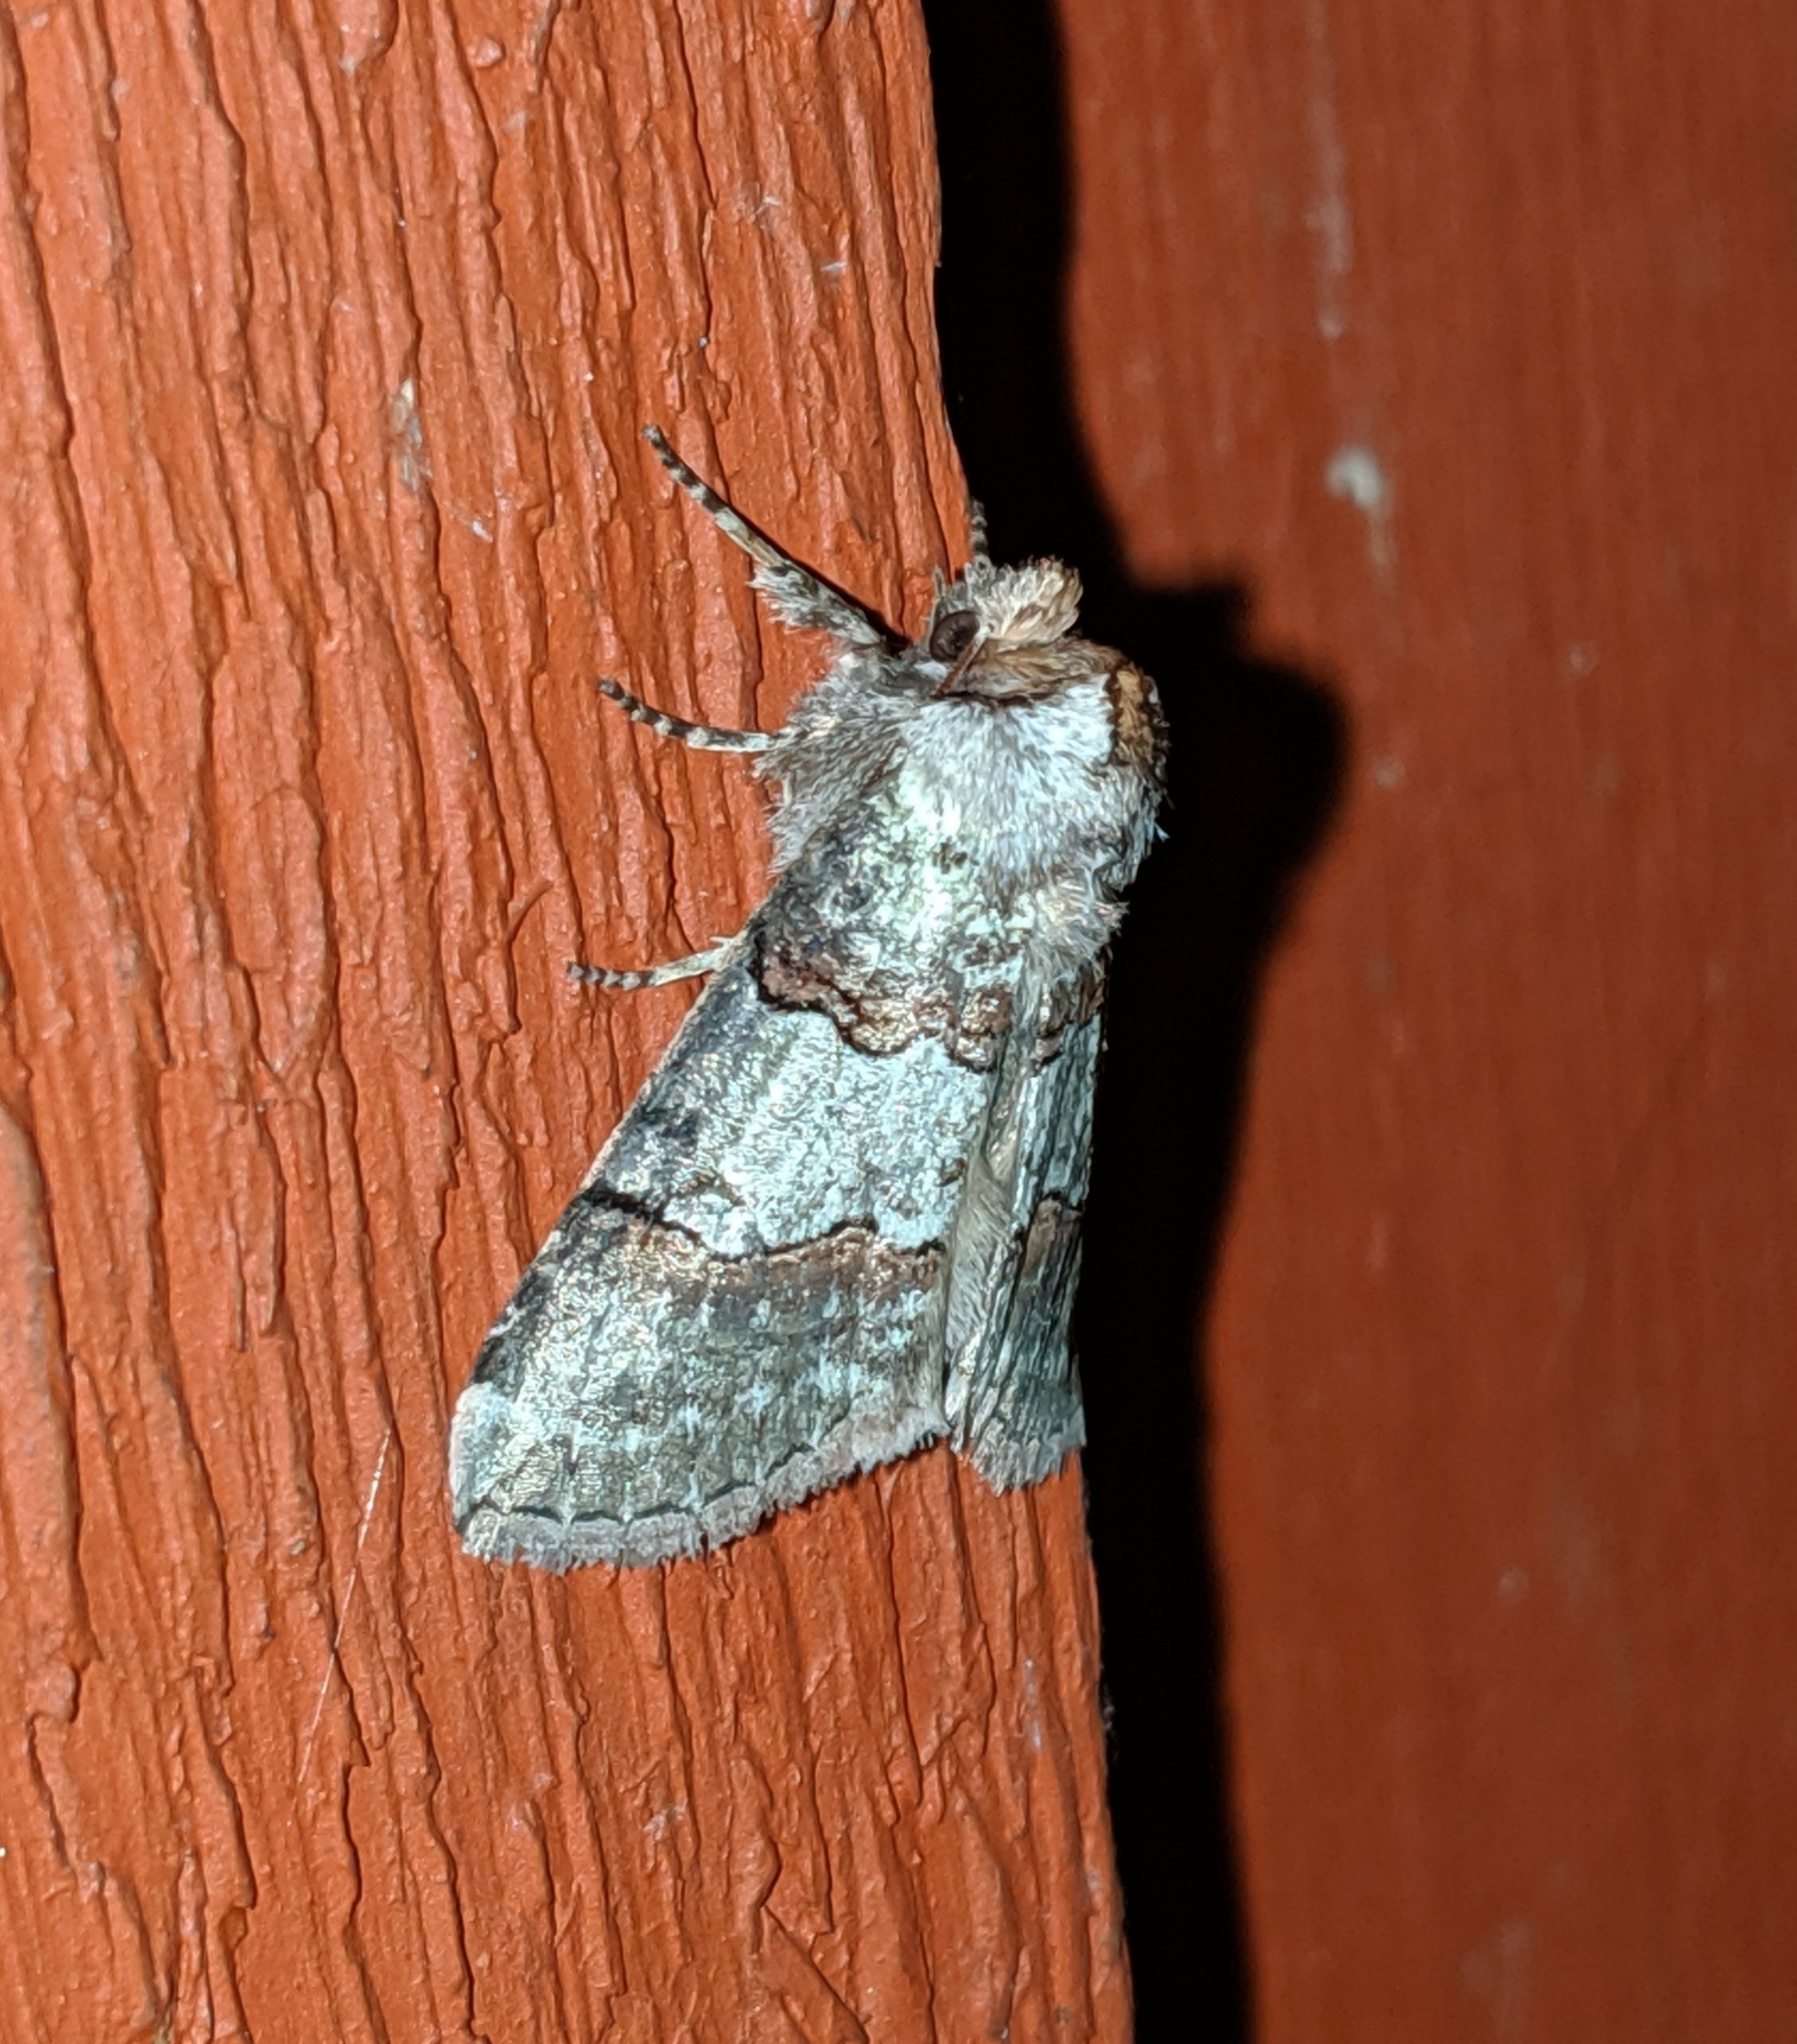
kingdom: Animalia
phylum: Arthropoda
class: Insecta
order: Lepidoptera
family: Drepanidae
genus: Ceranemota
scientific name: Ceranemota fasciata
